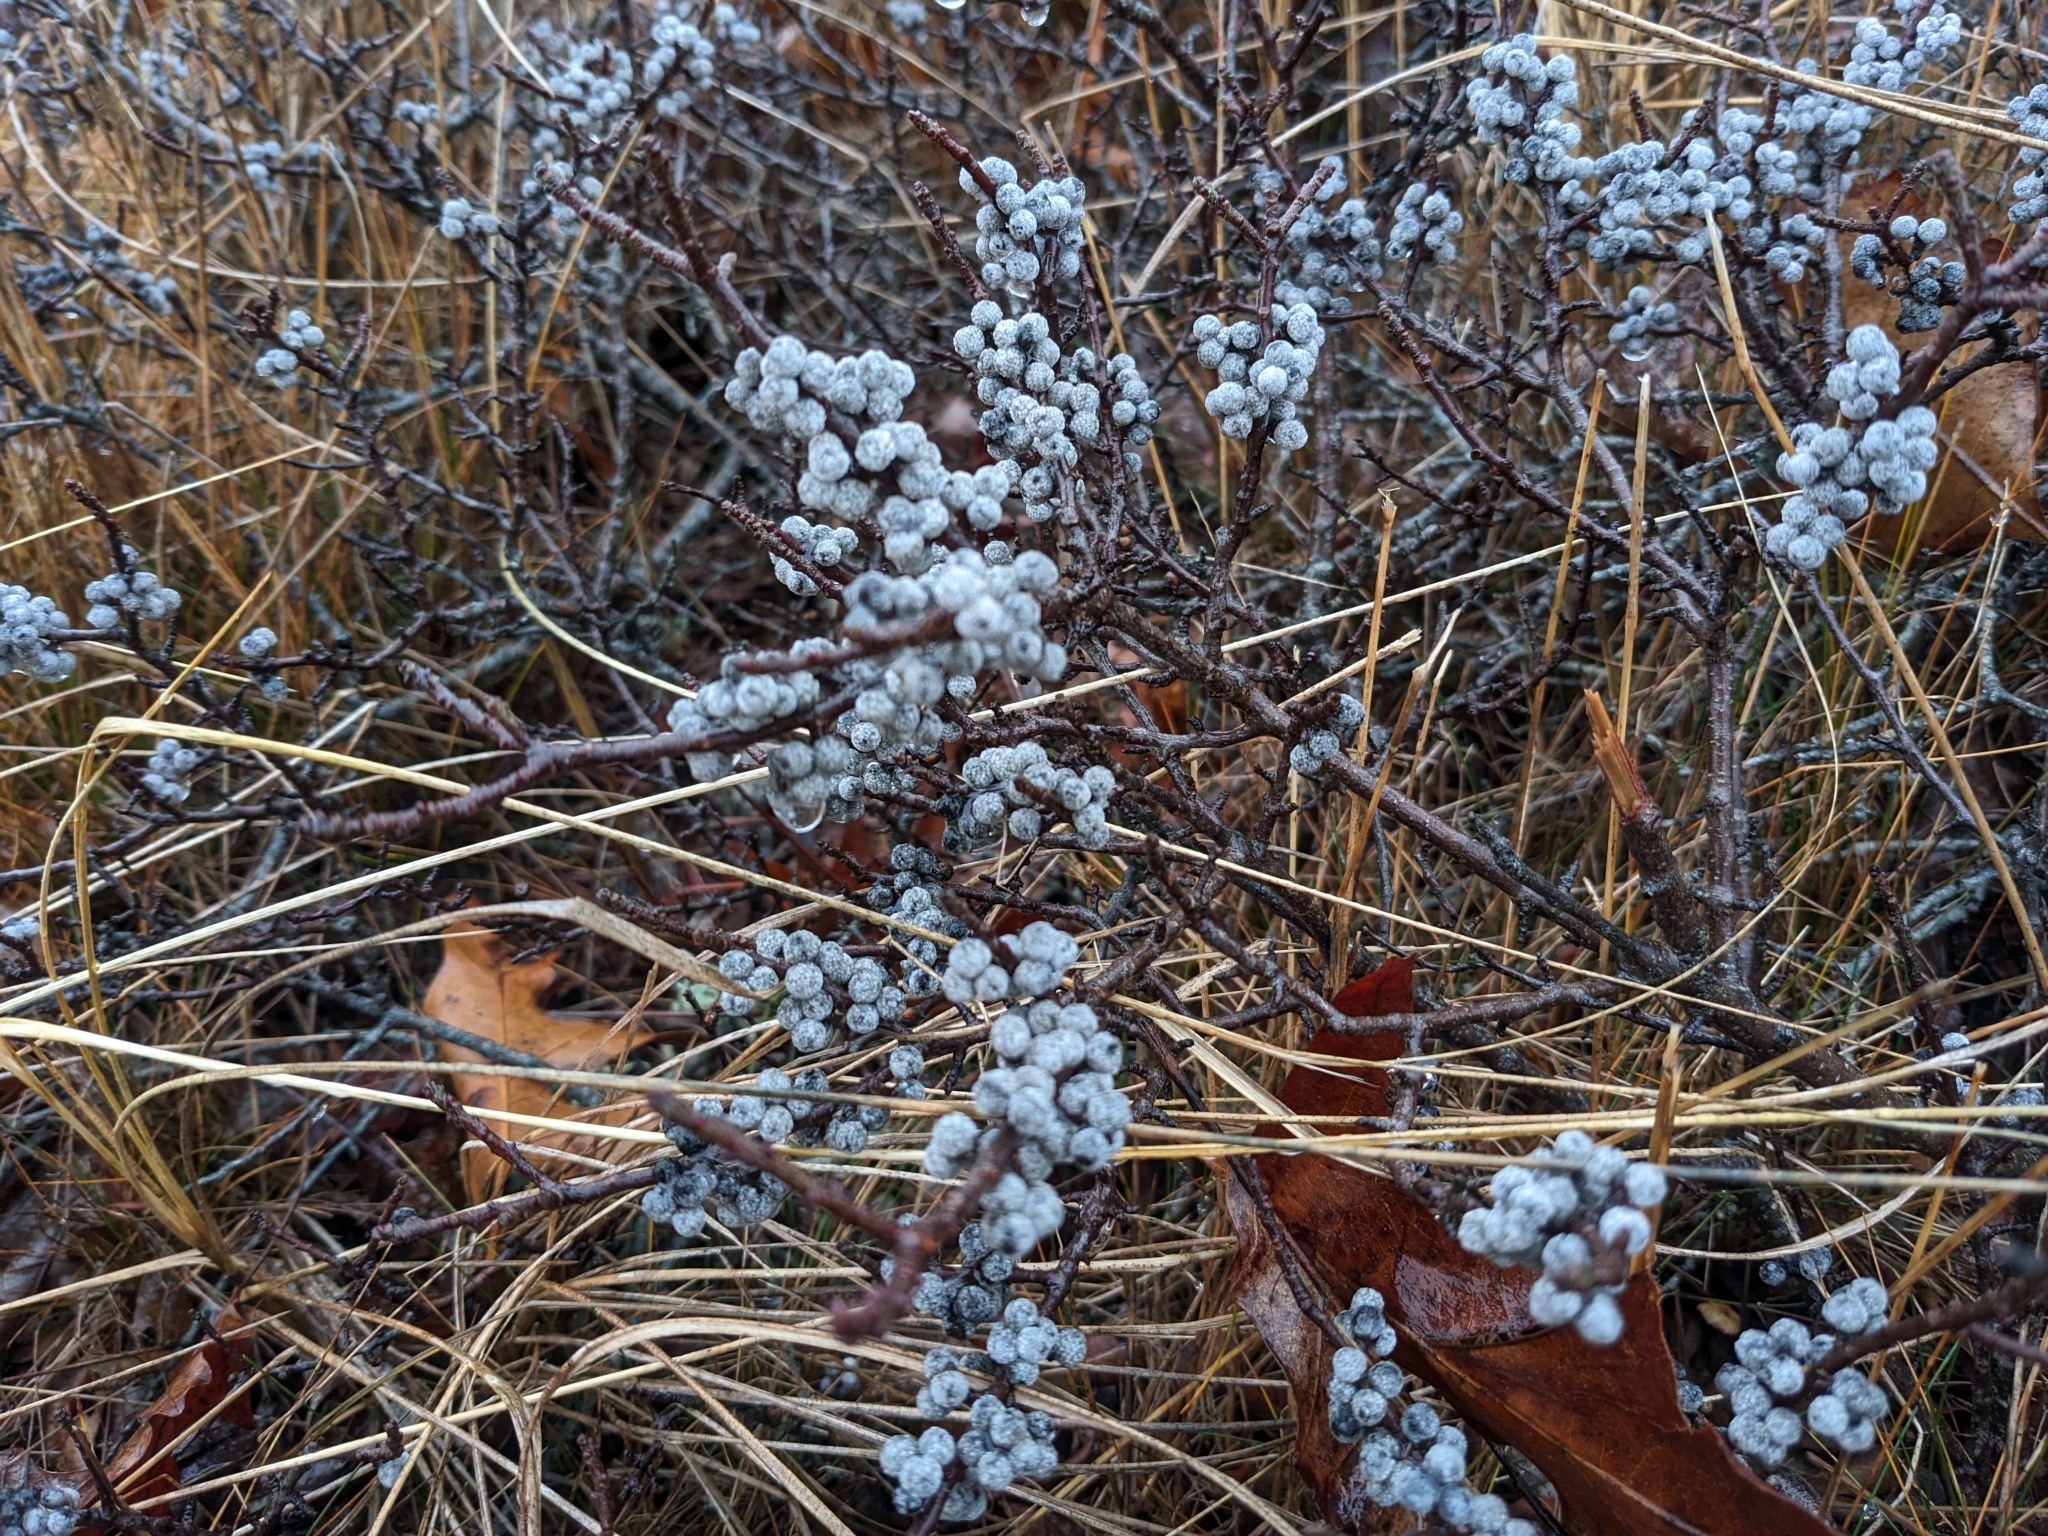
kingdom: Plantae
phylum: Tracheophyta
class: Magnoliopsida
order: Fagales
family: Myricaceae
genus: Morella
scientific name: Morella pensylvanica
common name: Northern bayberry
